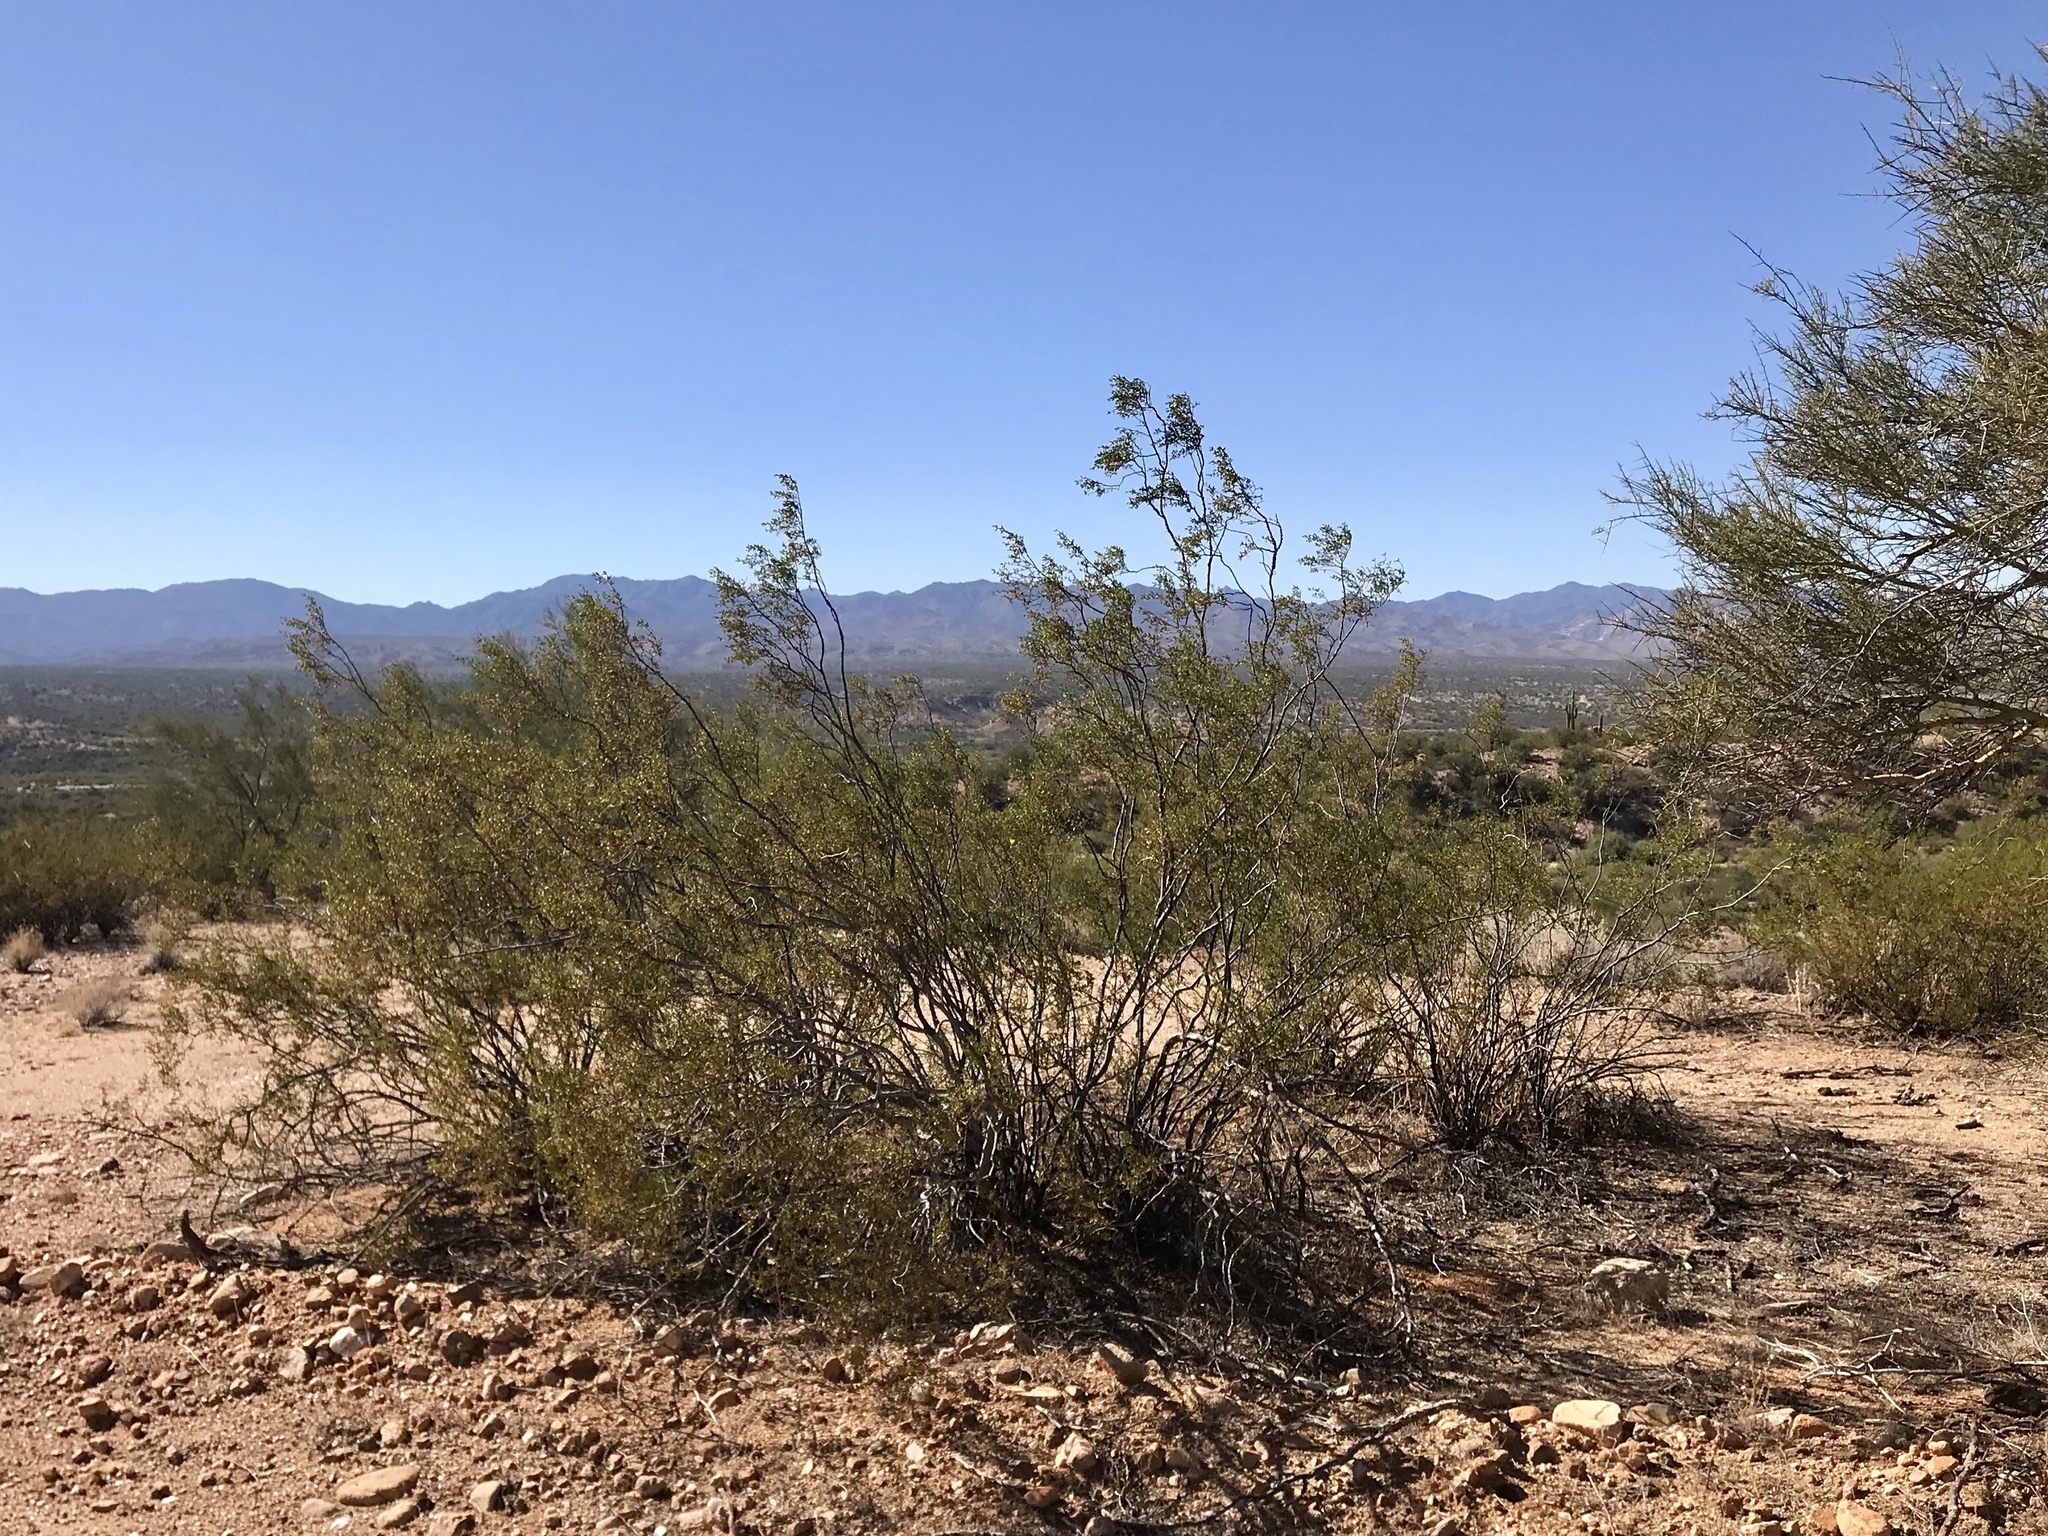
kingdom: Plantae
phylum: Tracheophyta
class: Magnoliopsida
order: Zygophyllales
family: Zygophyllaceae
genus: Larrea
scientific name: Larrea tridentata
